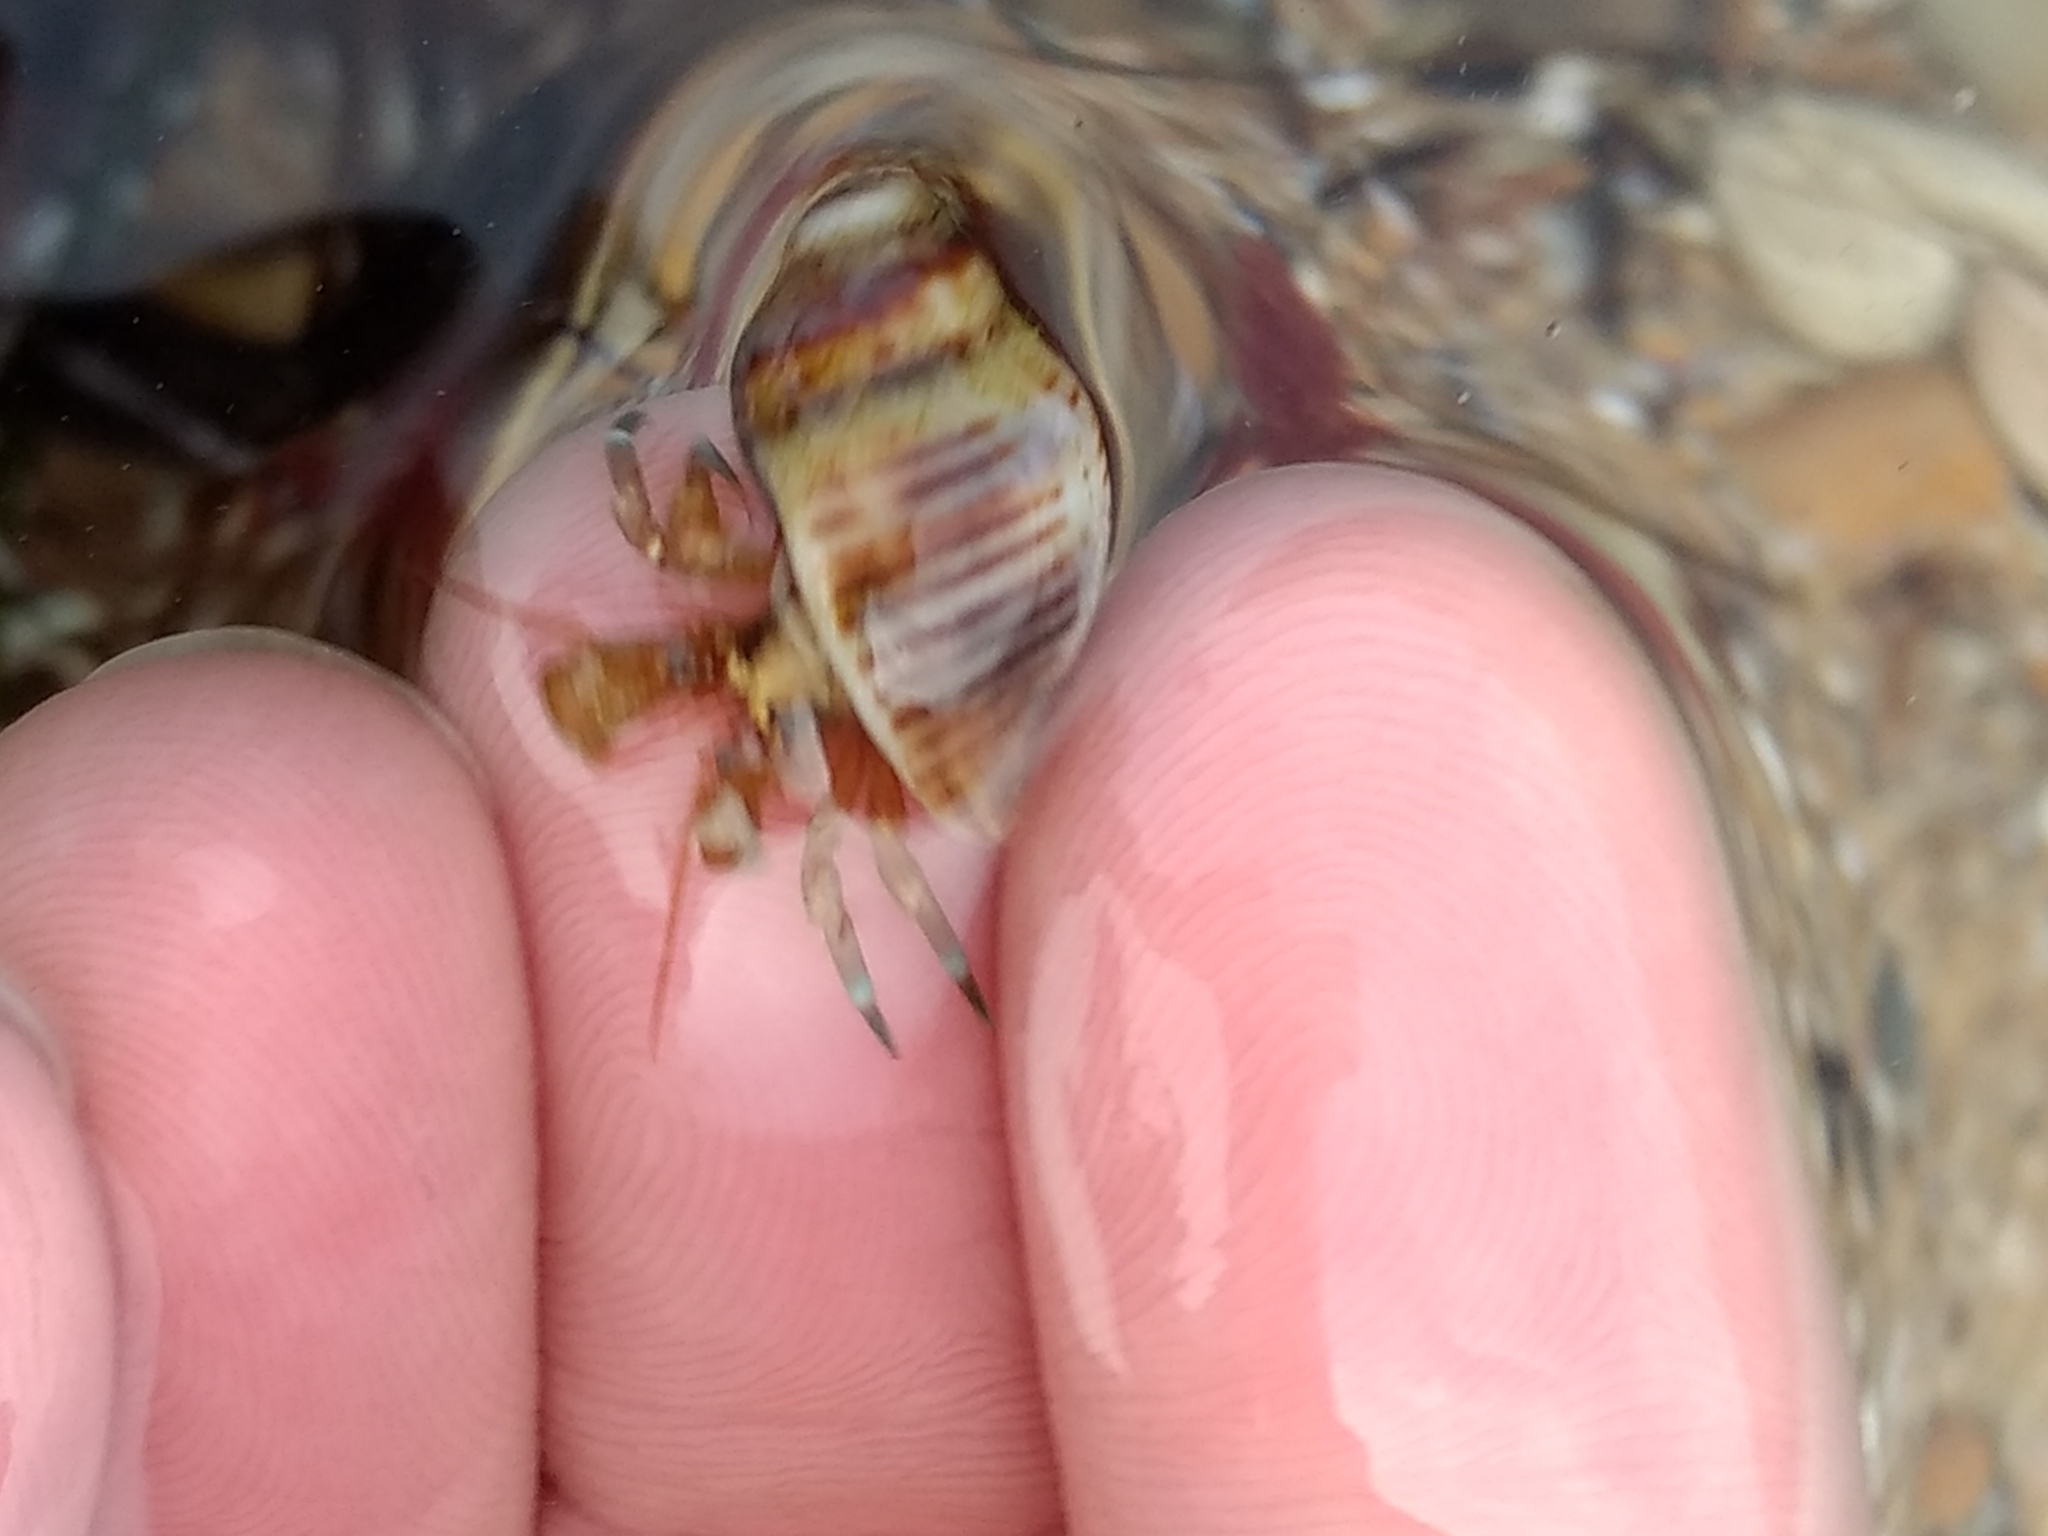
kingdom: Animalia
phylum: Arthropoda
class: Malacostraca
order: Decapoda
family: Paguridae
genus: Pagurus
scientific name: Pagurus samuelis
